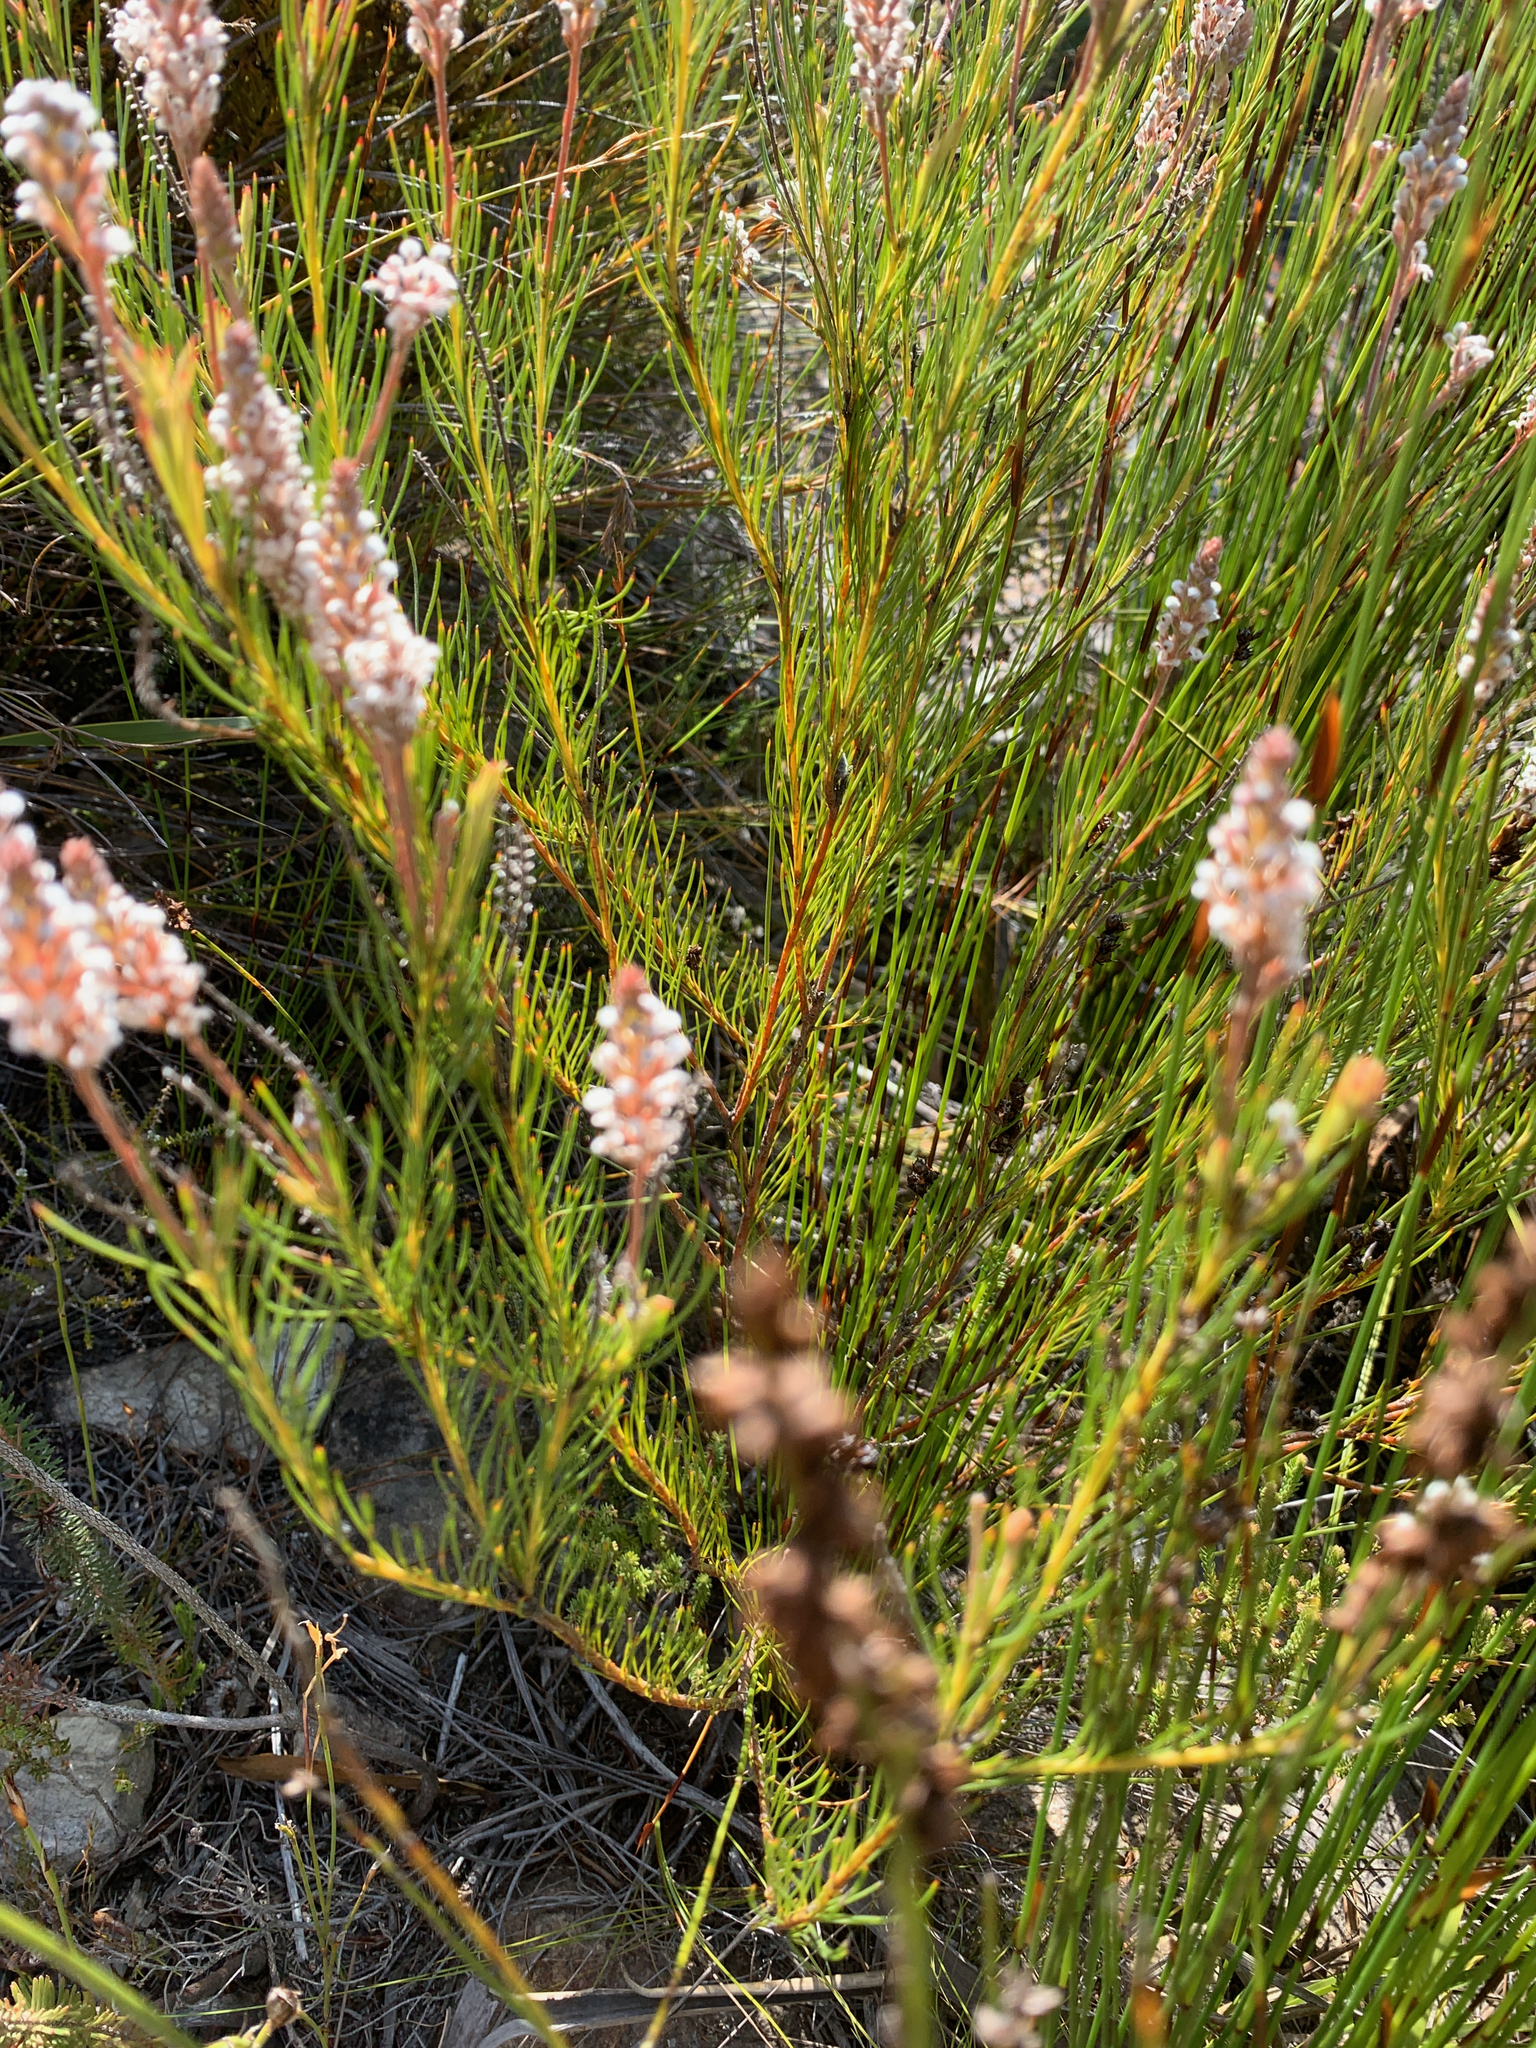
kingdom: Plantae
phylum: Tracheophyta
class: Magnoliopsida
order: Proteales
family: Proteaceae
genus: Spatalla
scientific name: Spatalla racemosa
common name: Lax-stalked spoon
